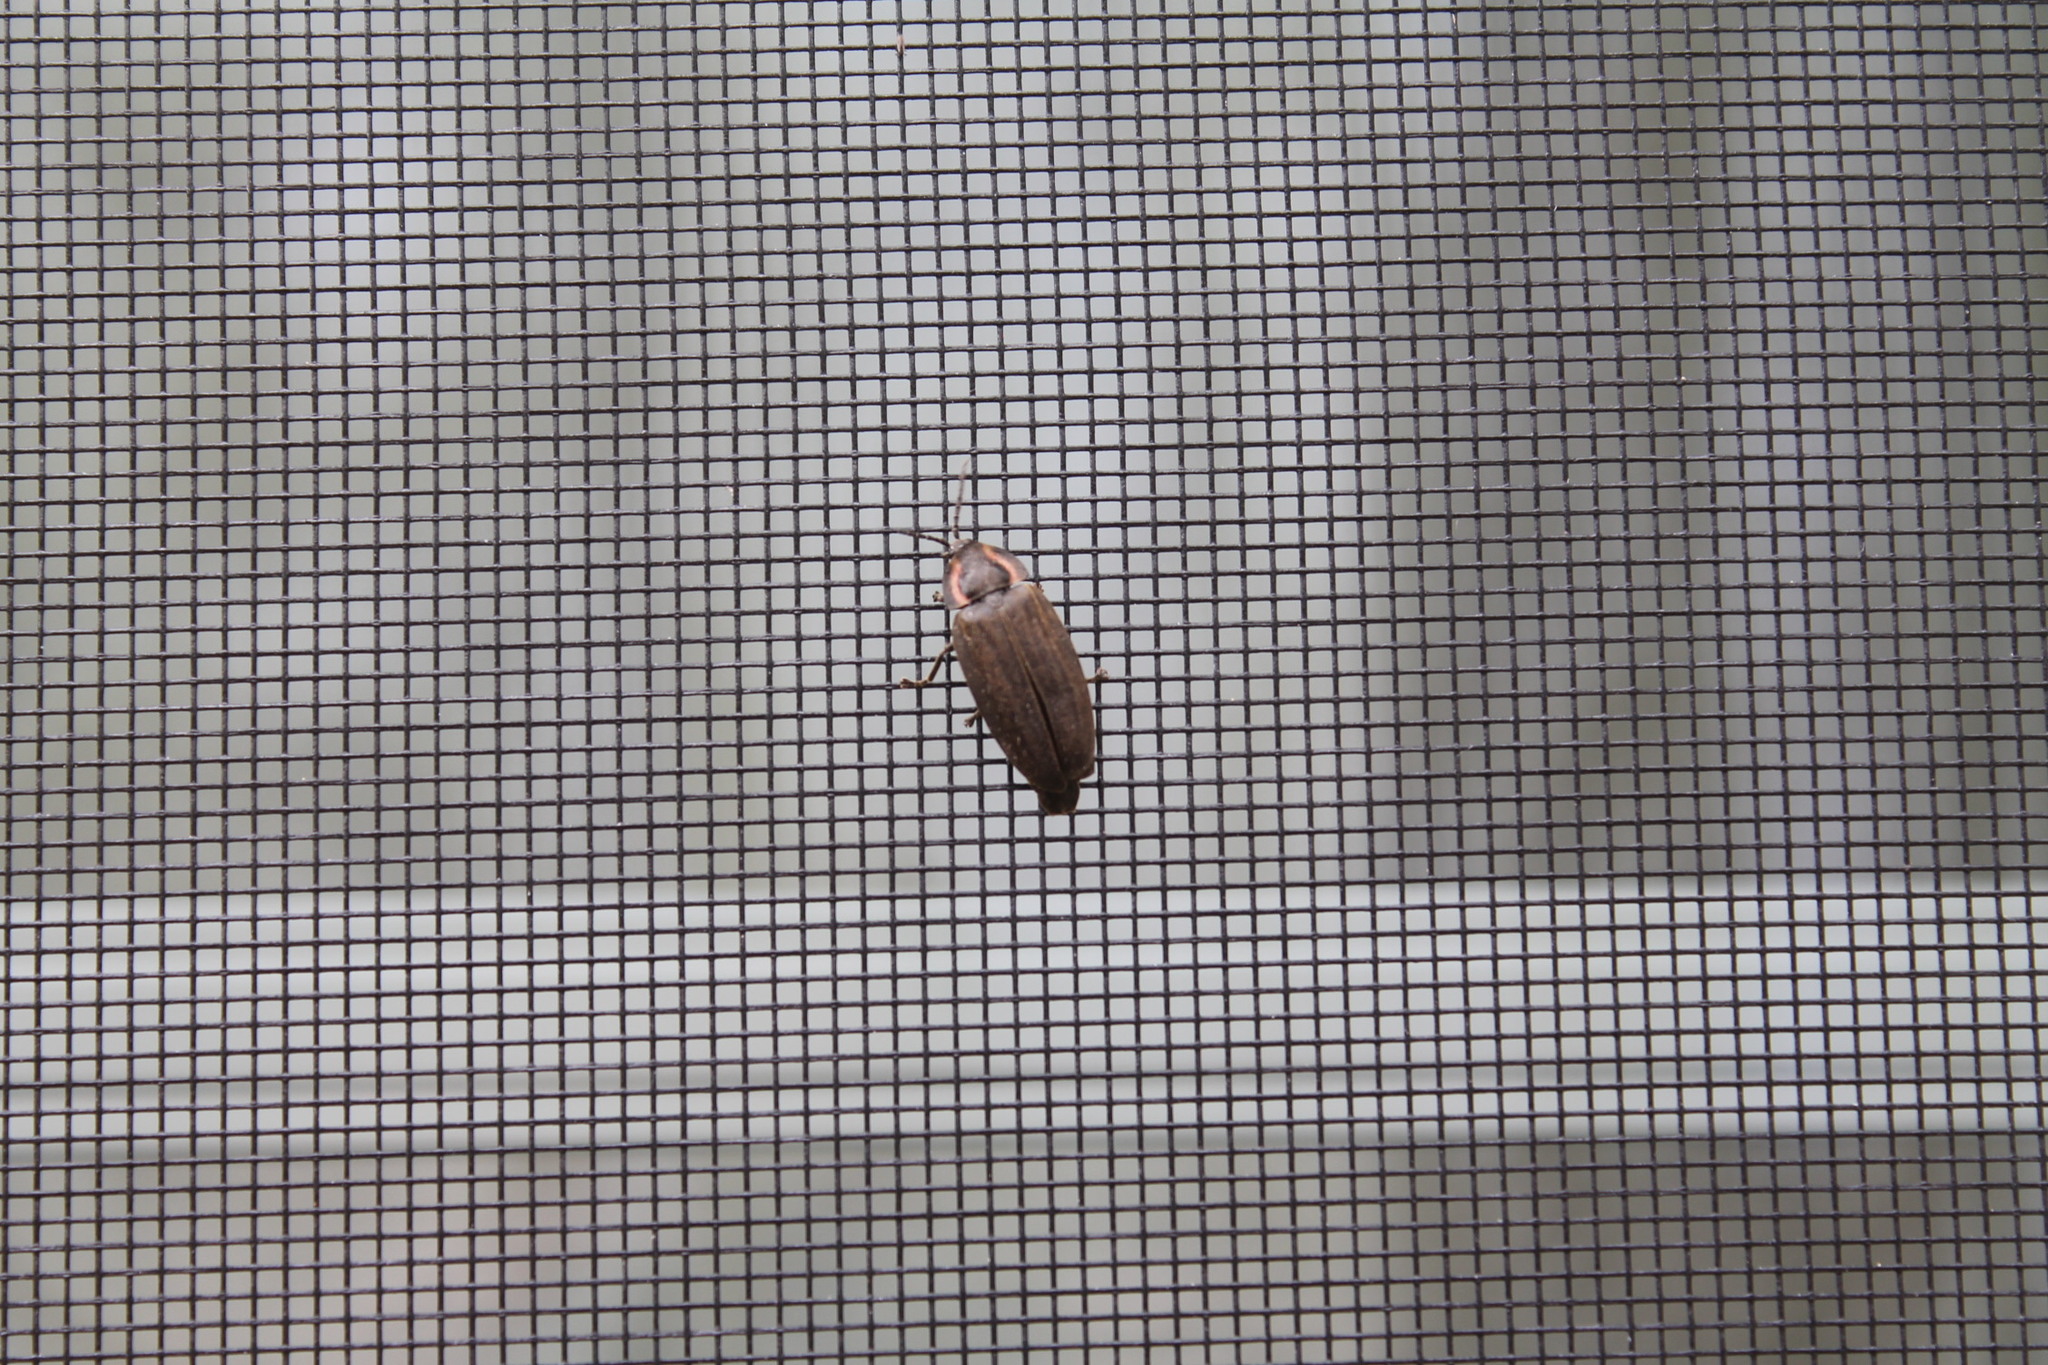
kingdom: Animalia
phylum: Arthropoda
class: Insecta
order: Coleoptera
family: Lampyridae
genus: Photinus
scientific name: Photinus corrusca
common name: Winter firefly
